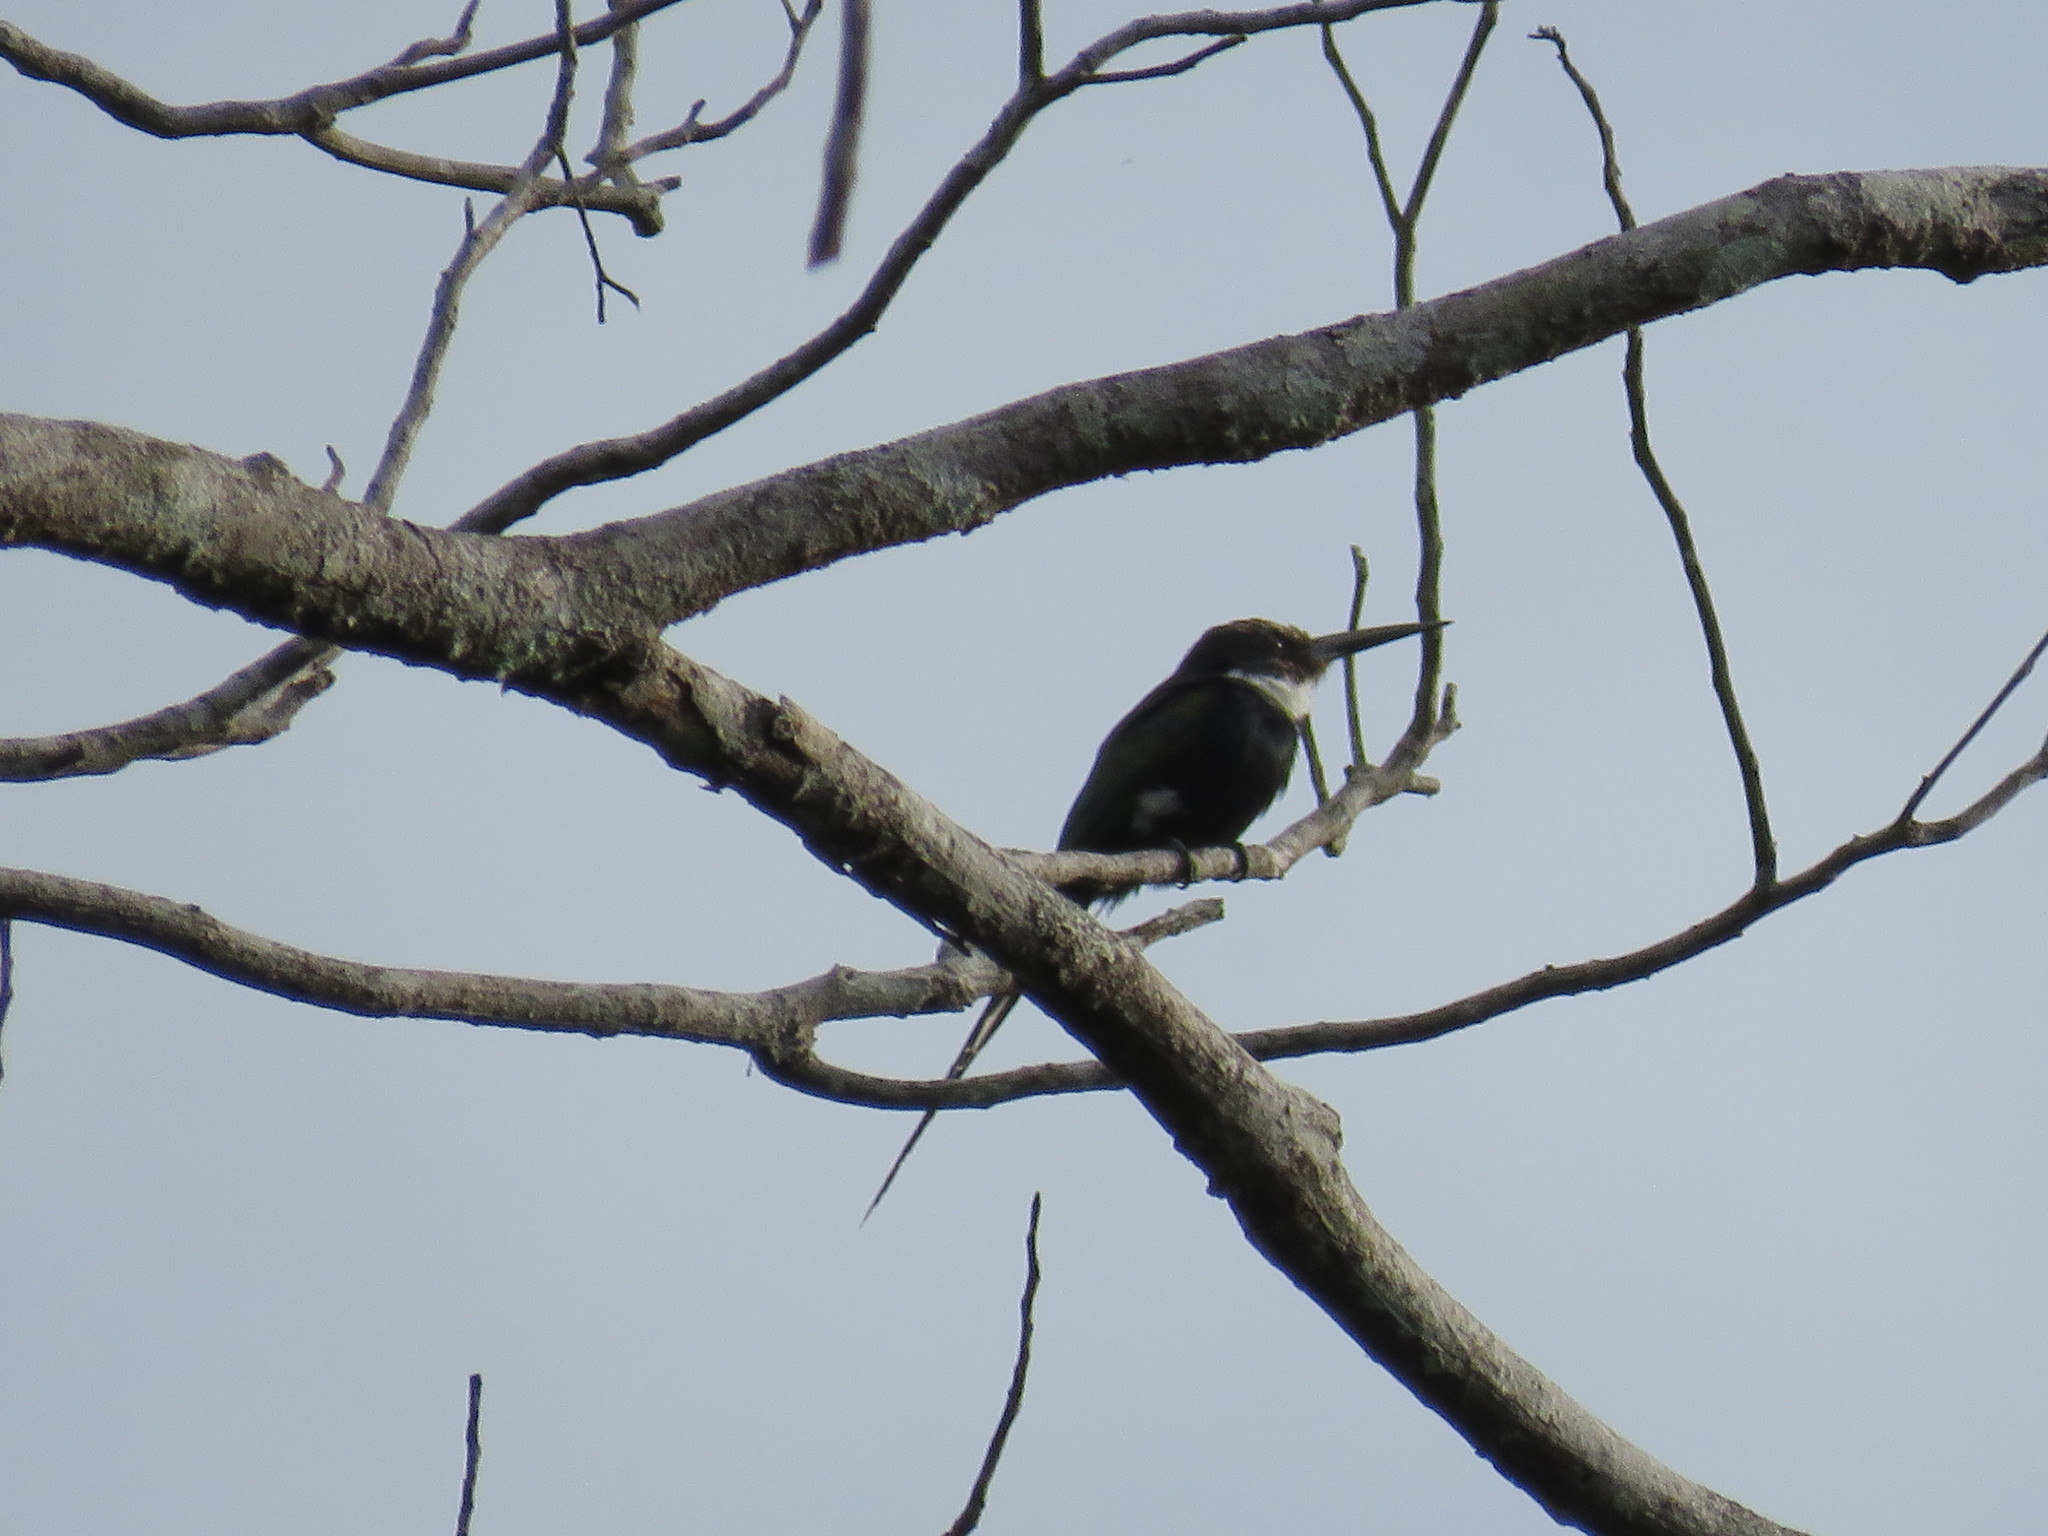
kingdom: Animalia
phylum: Chordata
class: Aves
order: Piciformes
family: Galbulidae
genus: Galbula
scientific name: Galbula dea
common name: Paradise jacamar
